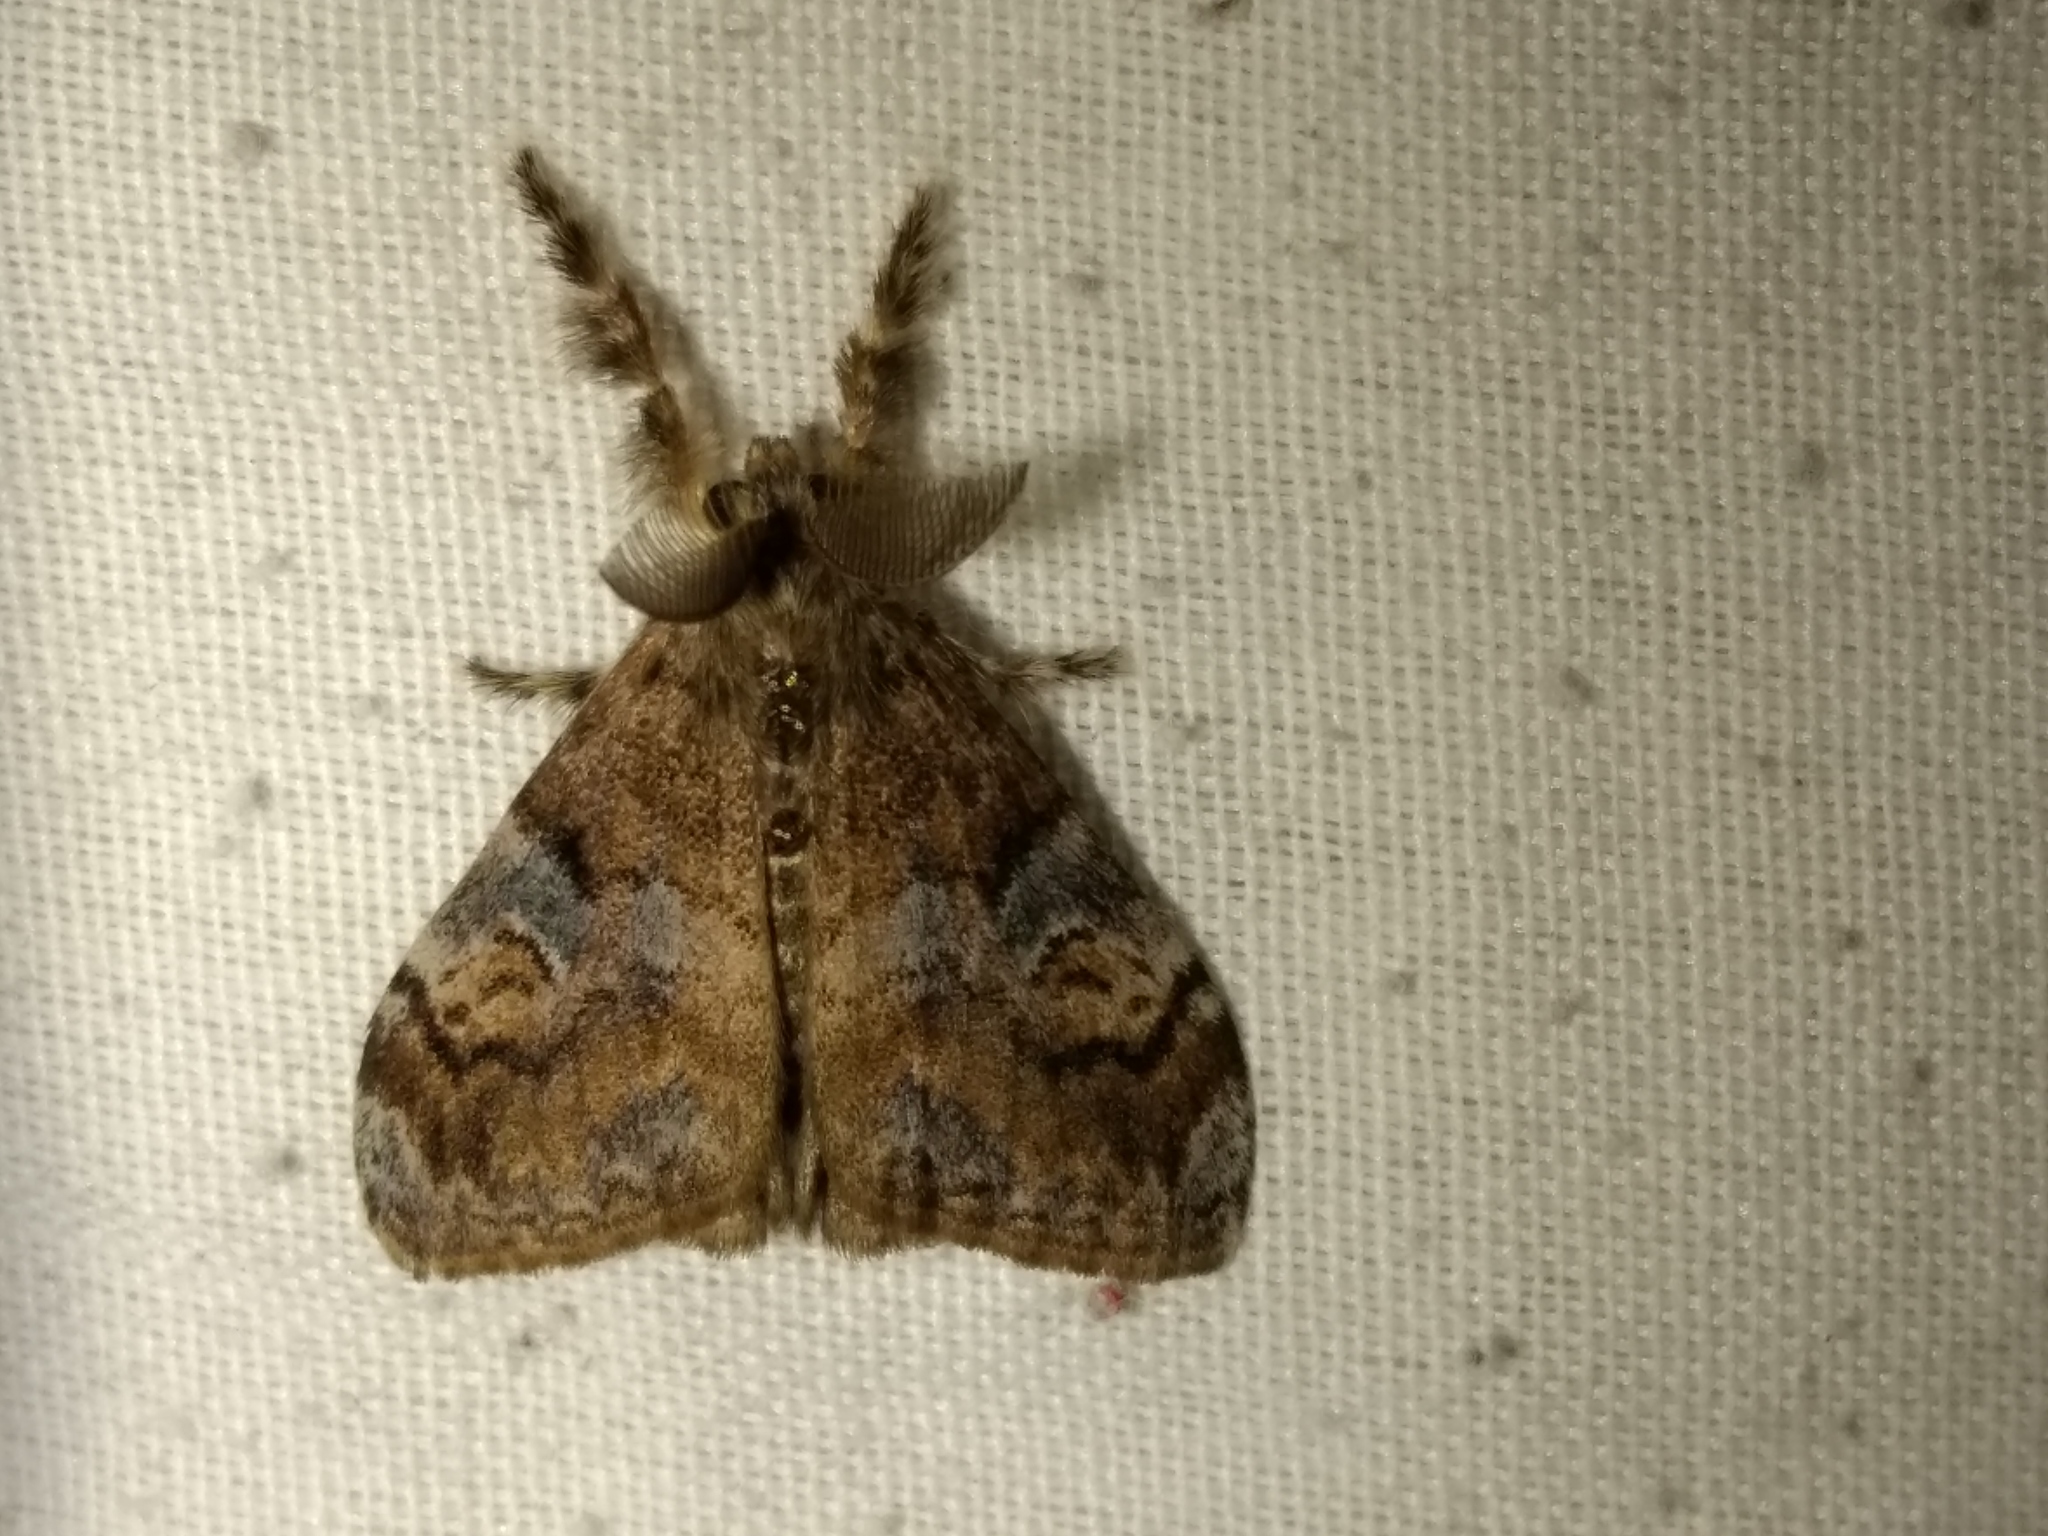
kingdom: Animalia
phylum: Arthropoda
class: Insecta
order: Lepidoptera
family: Erebidae
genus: Orgyia
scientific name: Orgyia australis
